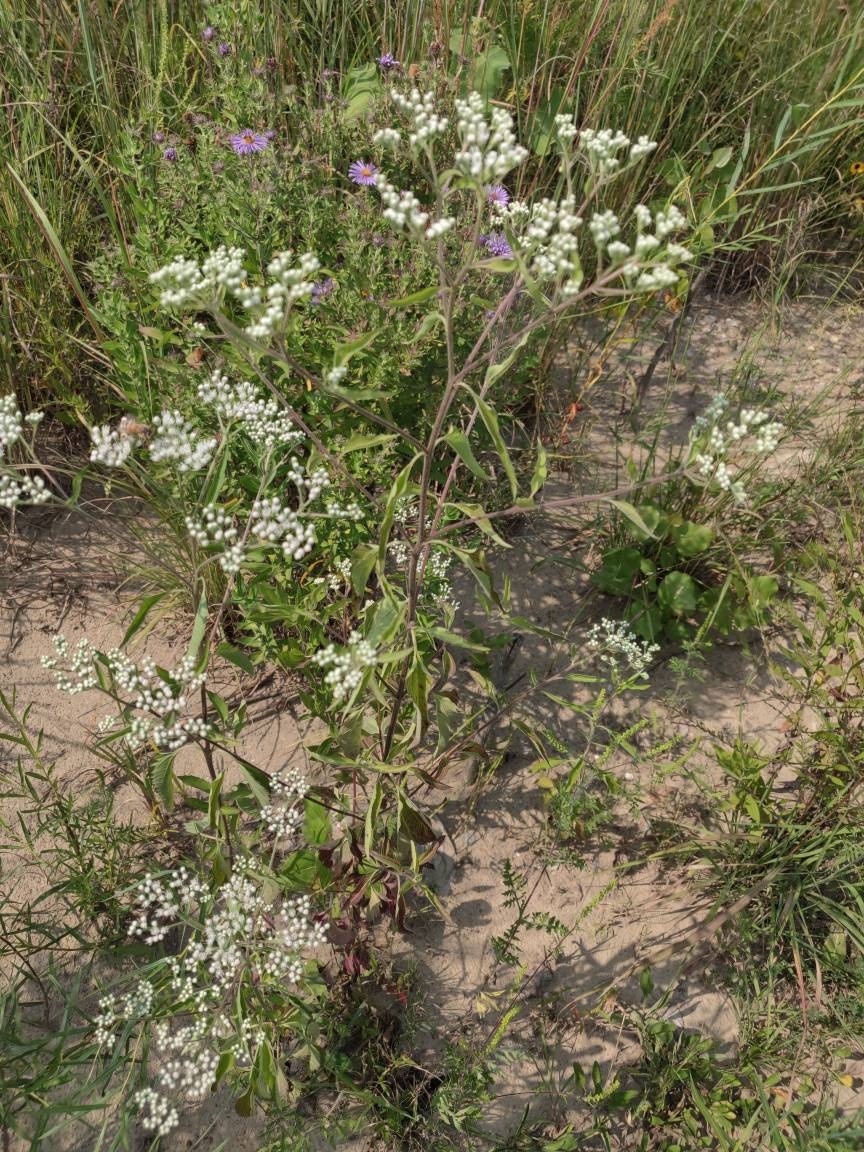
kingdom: Plantae
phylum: Tracheophyta
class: Magnoliopsida
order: Asterales
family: Asteraceae
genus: Eupatorium
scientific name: Eupatorium serotinum
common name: Late boneset
